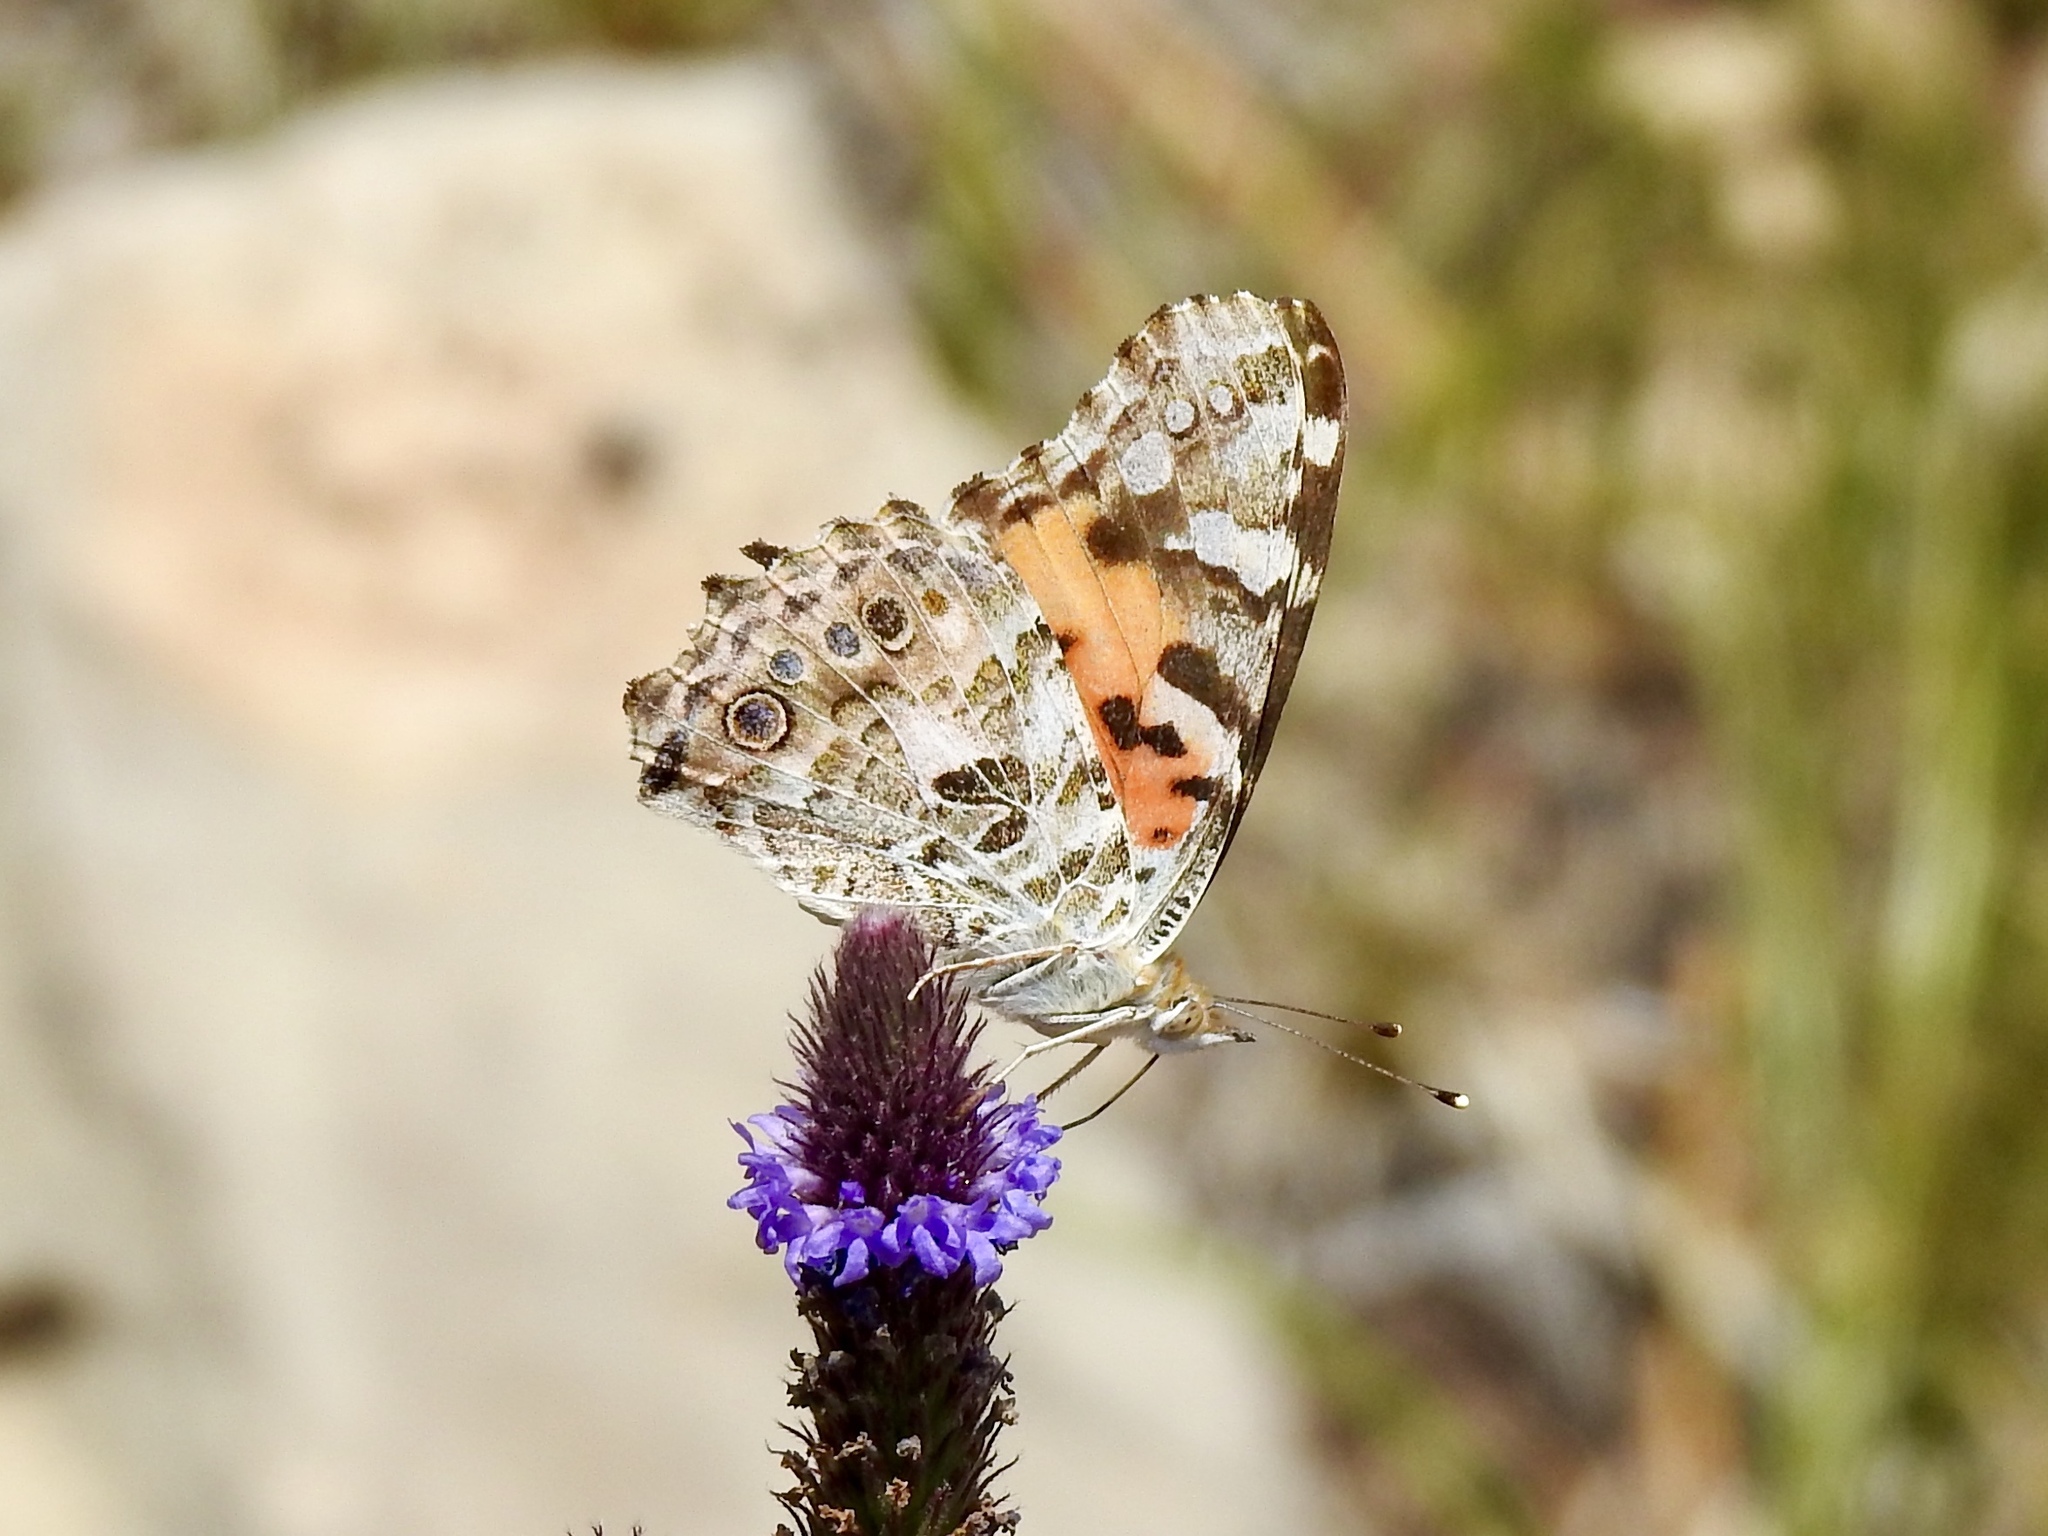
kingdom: Animalia
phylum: Arthropoda
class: Insecta
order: Lepidoptera
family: Nymphalidae
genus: Vanessa
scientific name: Vanessa cardui
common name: Painted lady
